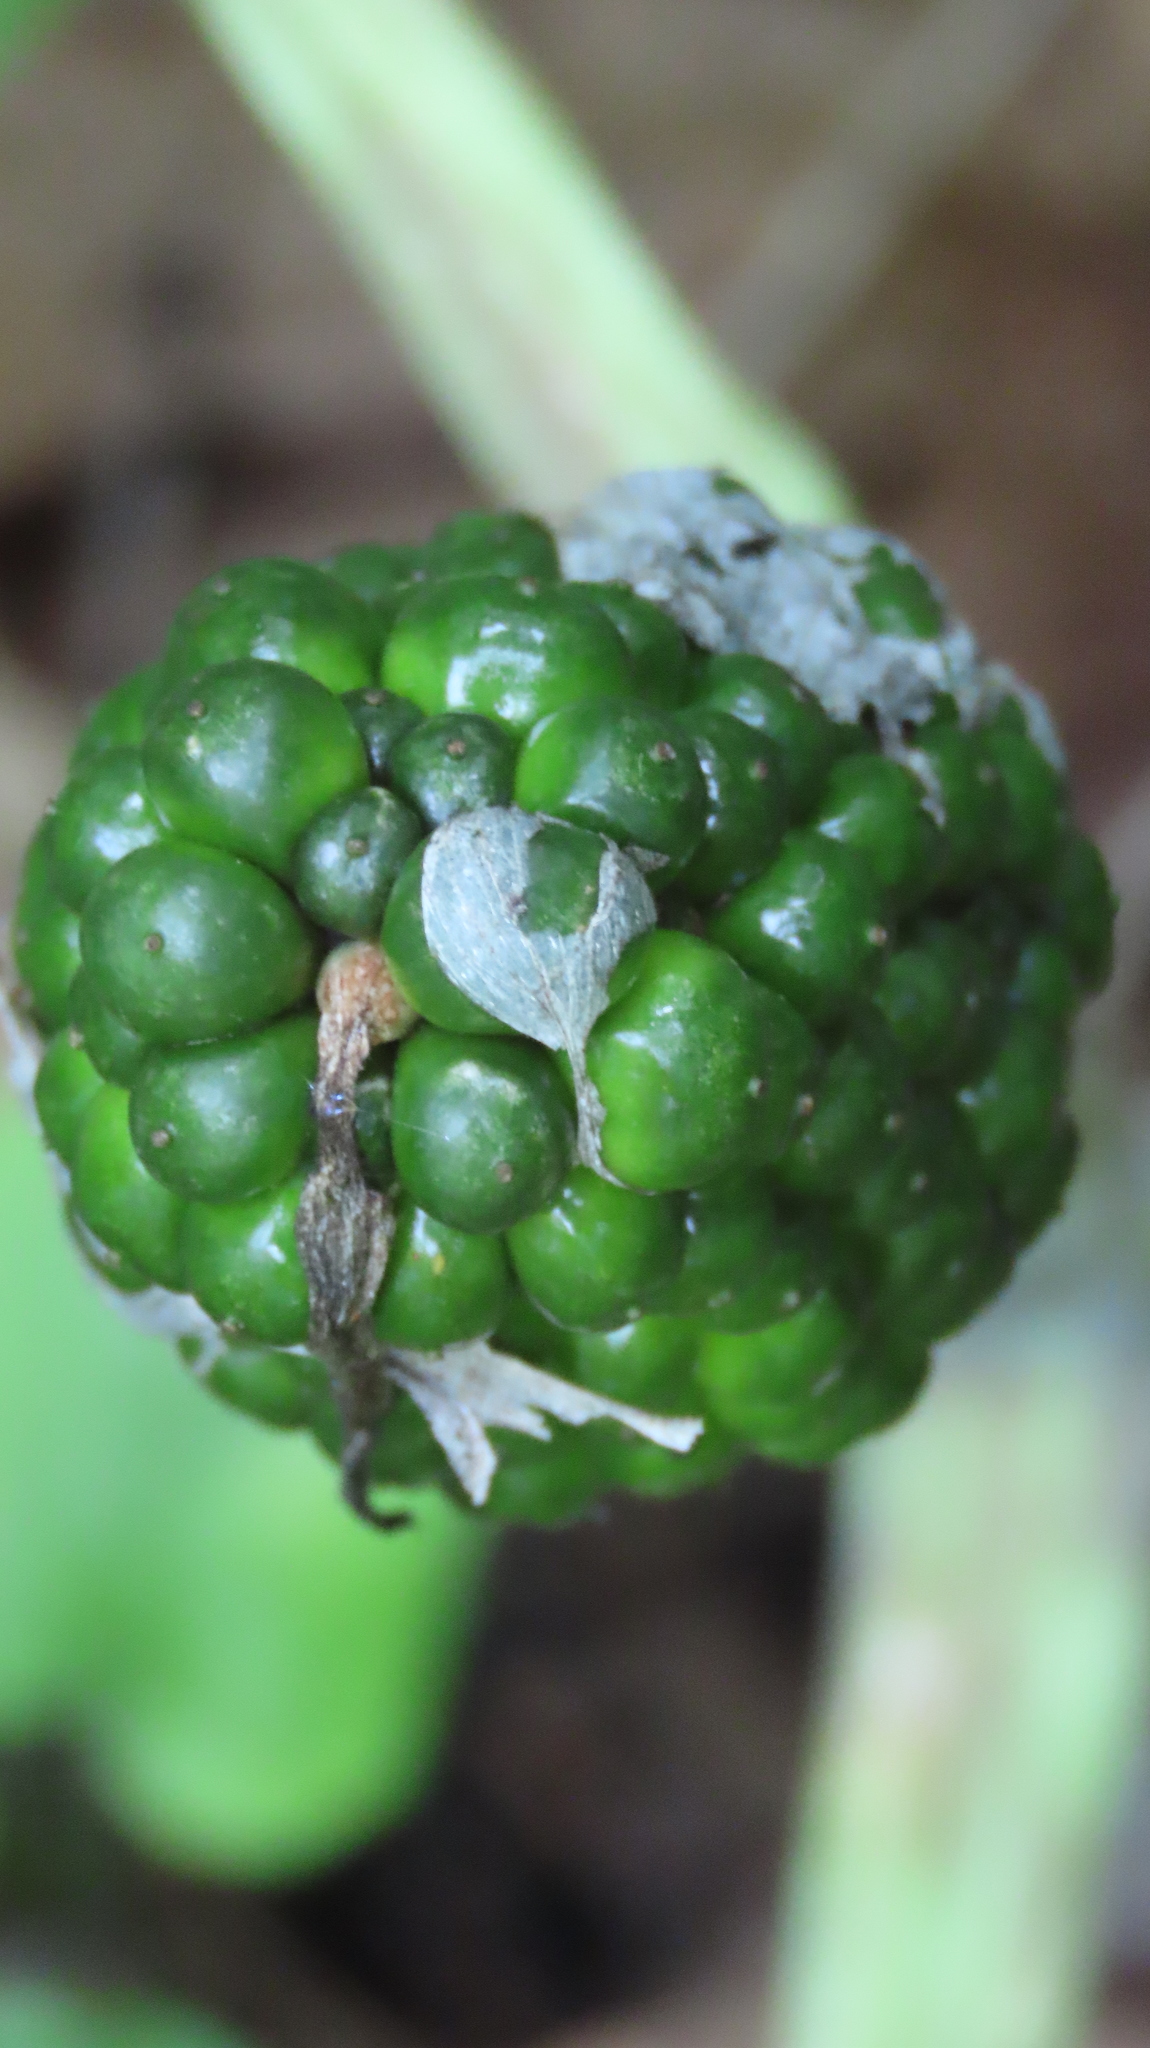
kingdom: Plantae
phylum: Tracheophyta
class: Liliopsida
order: Alismatales
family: Araceae
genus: Arisaema
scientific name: Arisaema triphyllum
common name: Jack-in-the-pulpit
